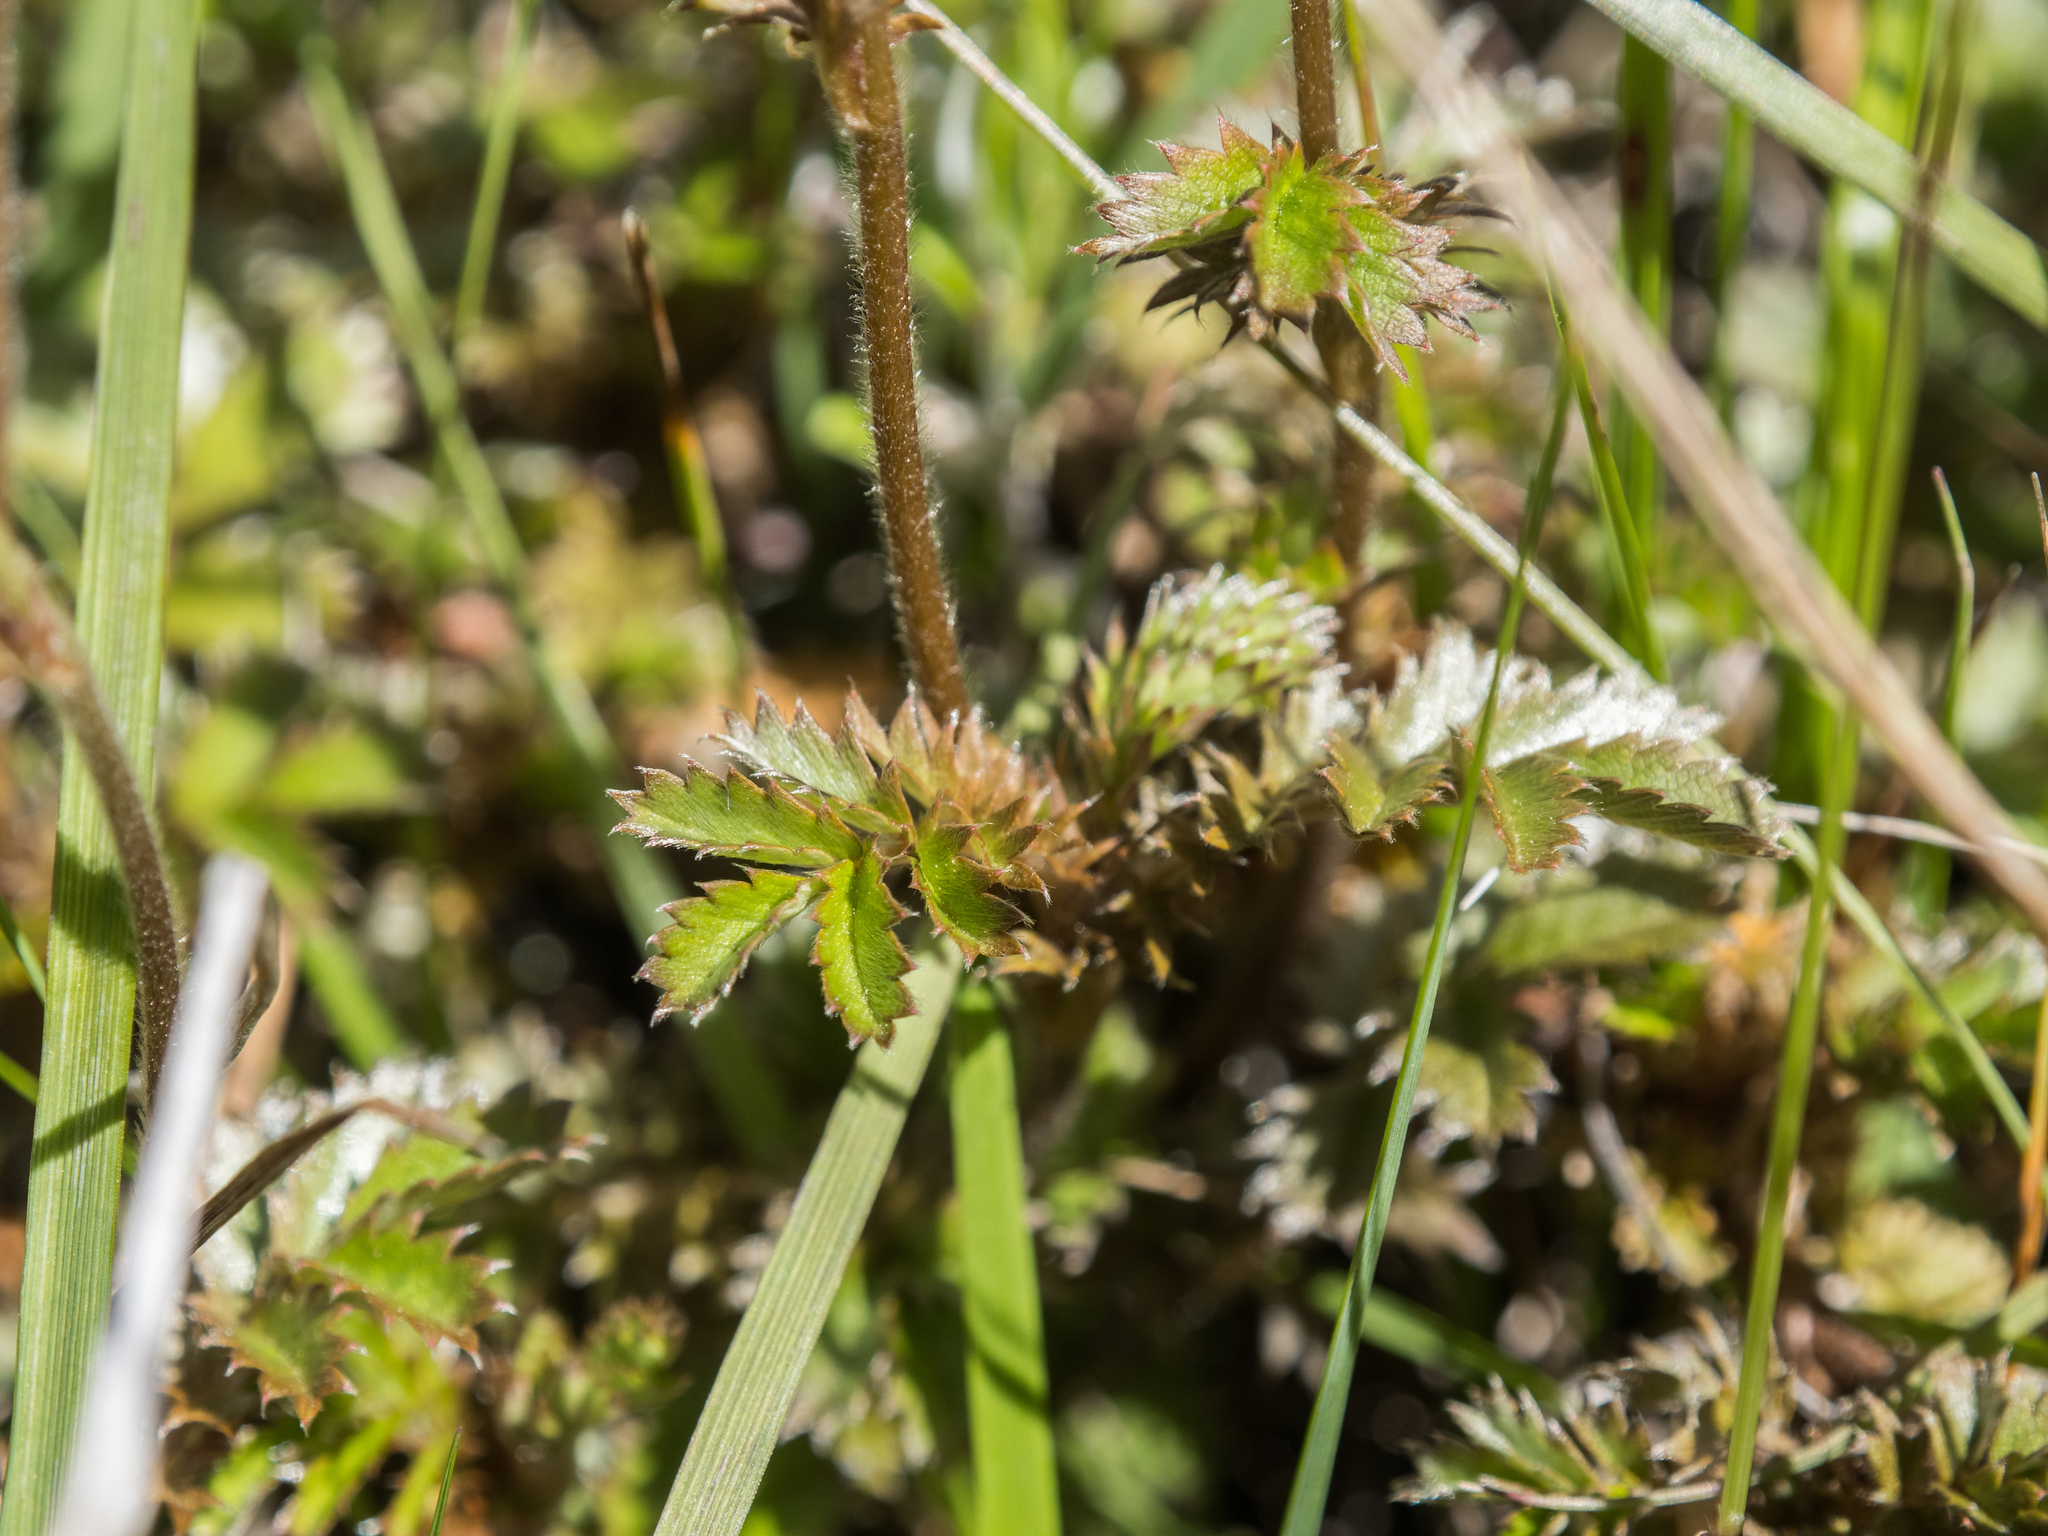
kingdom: Plantae
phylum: Tracheophyta
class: Magnoliopsida
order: Rosales
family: Rosaceae
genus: Acaena
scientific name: Acaena profundeincisa
